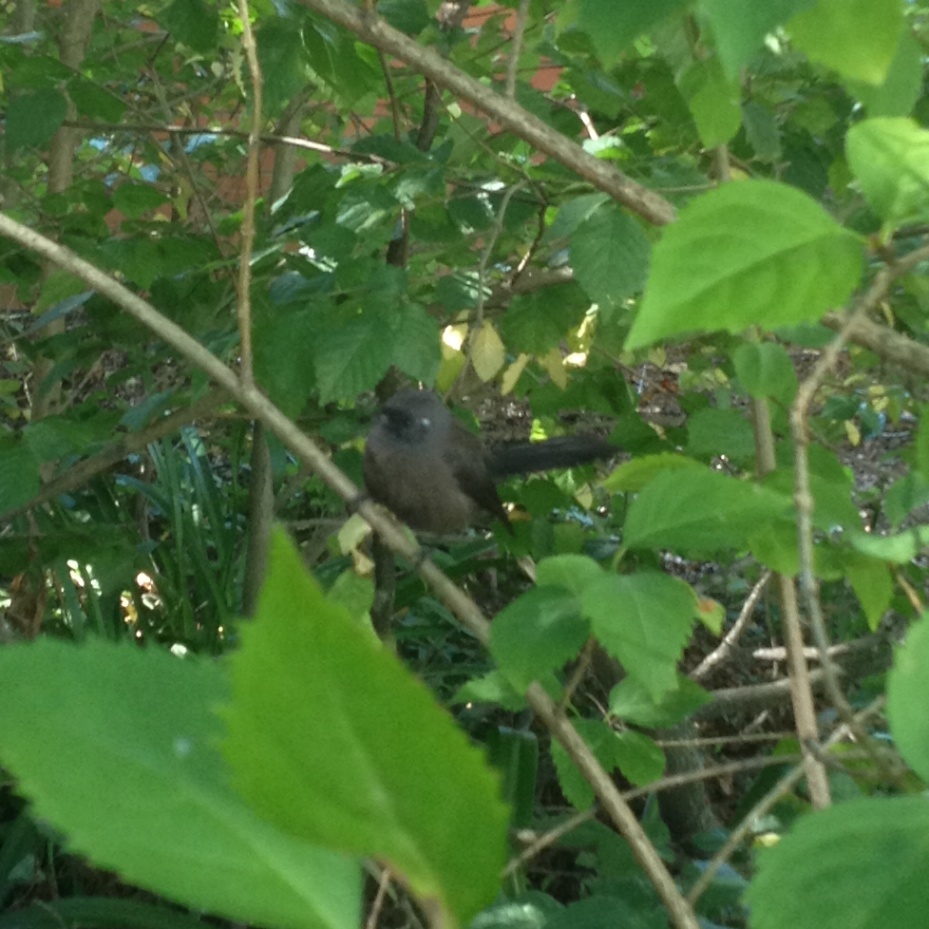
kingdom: Animalia
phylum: Chordata
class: Aves
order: Passeriformes
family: Rhipiduridae
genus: Rhipidura
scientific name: Rhipidura fuliginosa
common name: New zealand fantail
